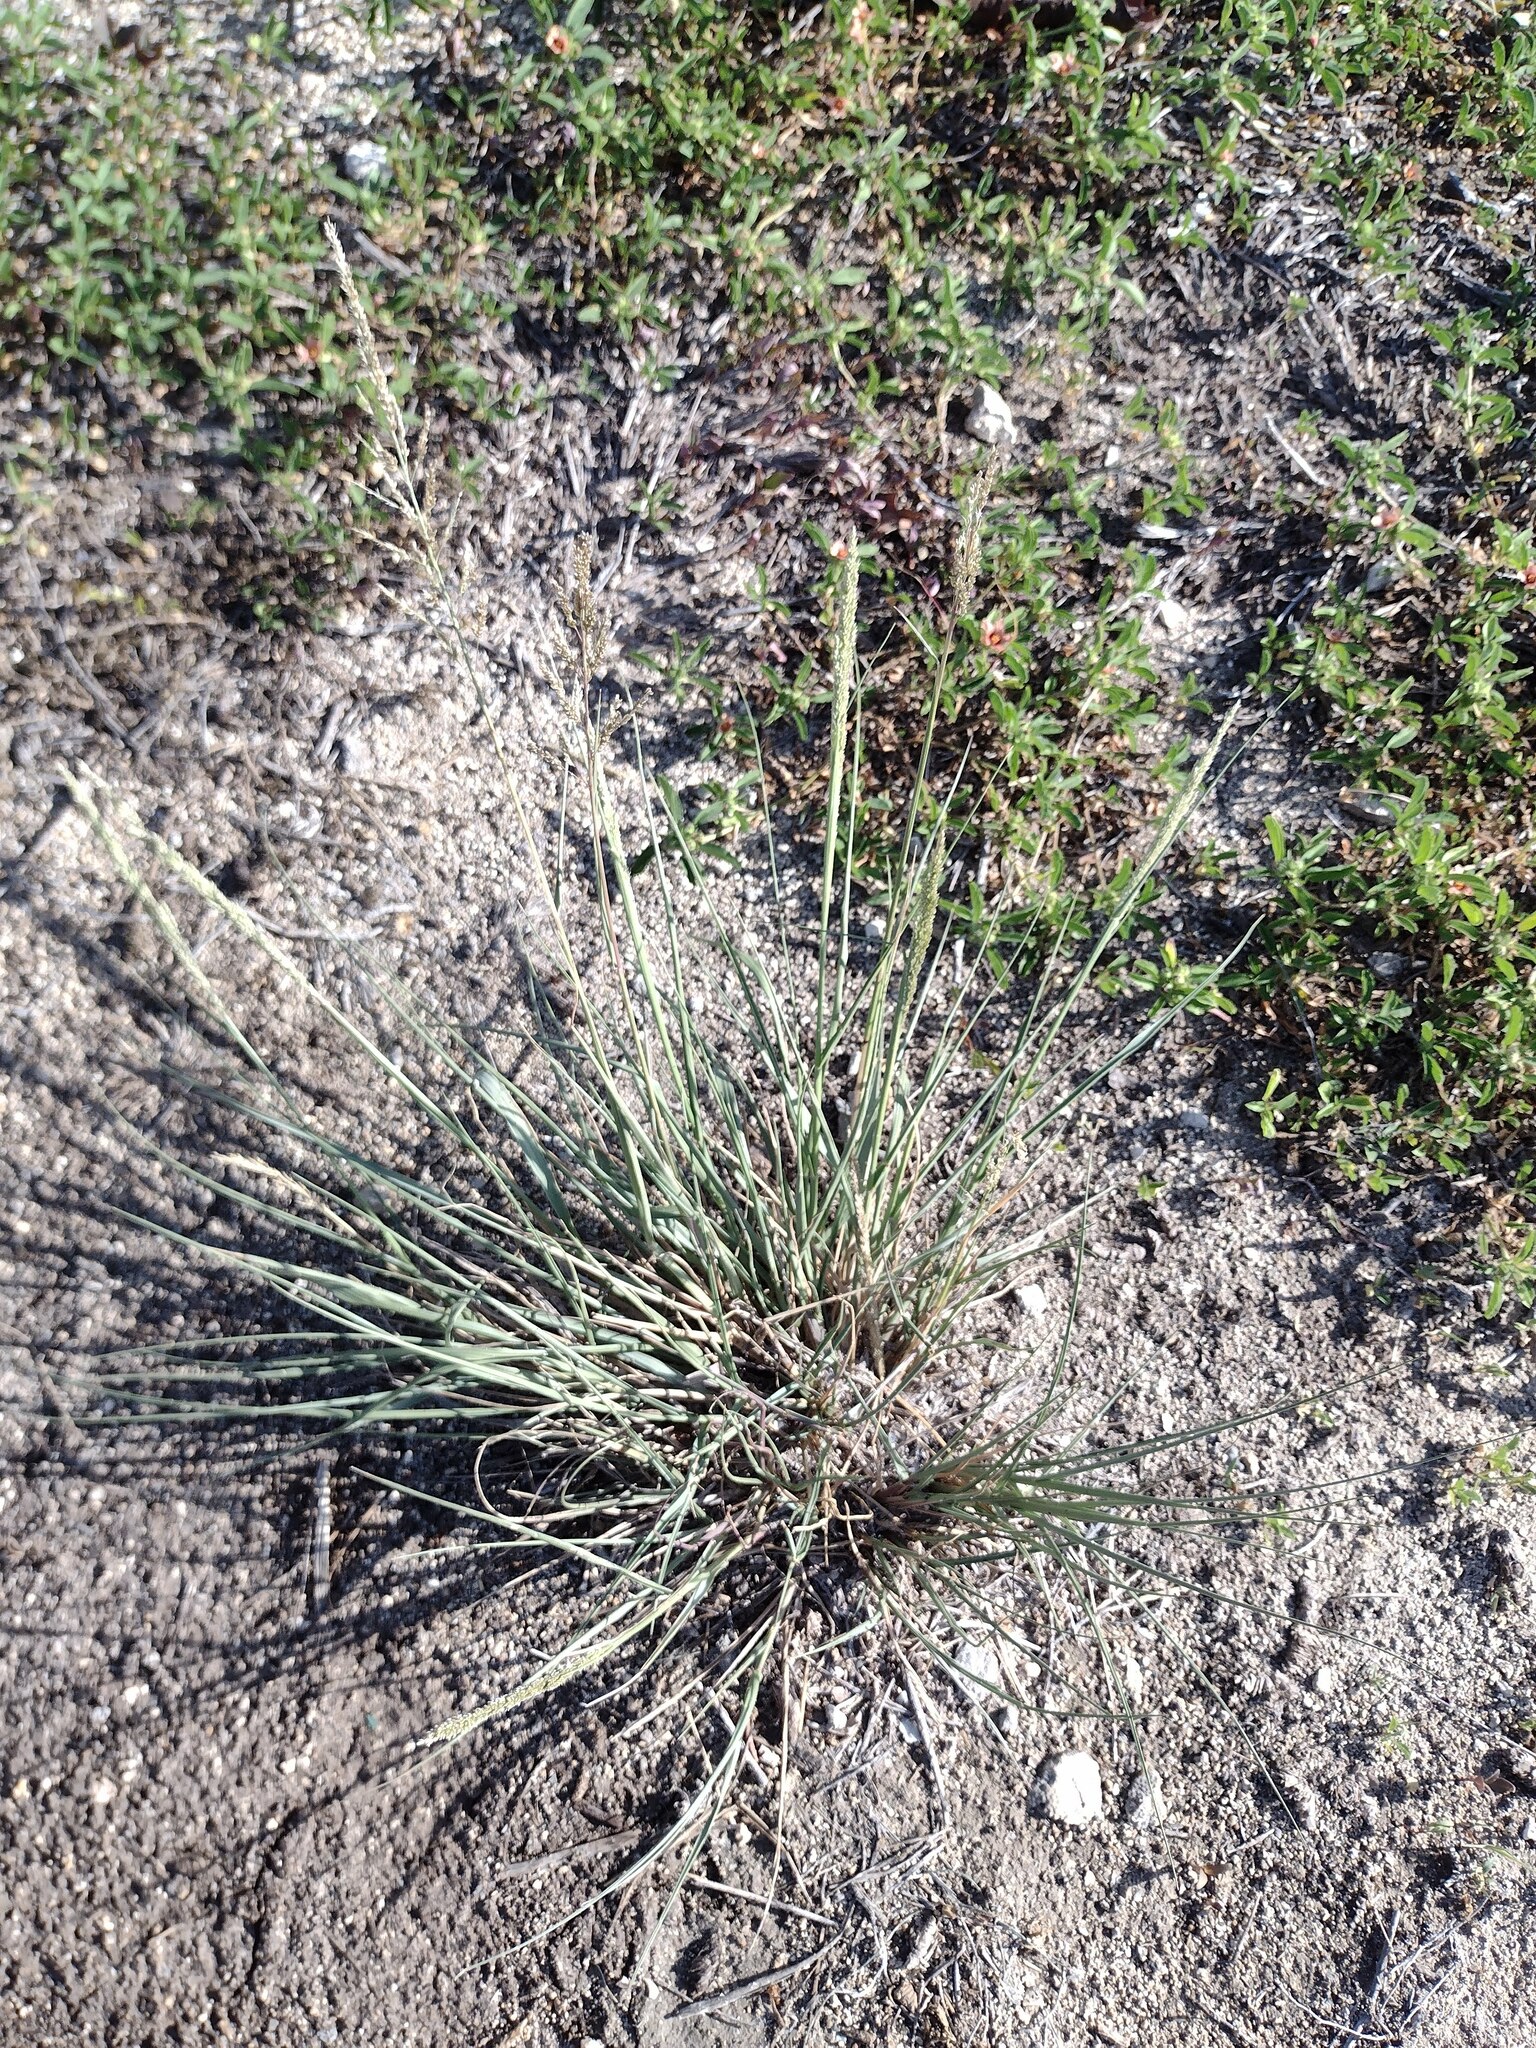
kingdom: Plantae
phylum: Tracheophyta
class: Liliopsida
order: Poales
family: Poaceae
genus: Sporobolus
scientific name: Sporobolus domingensis
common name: Coral dropseed
